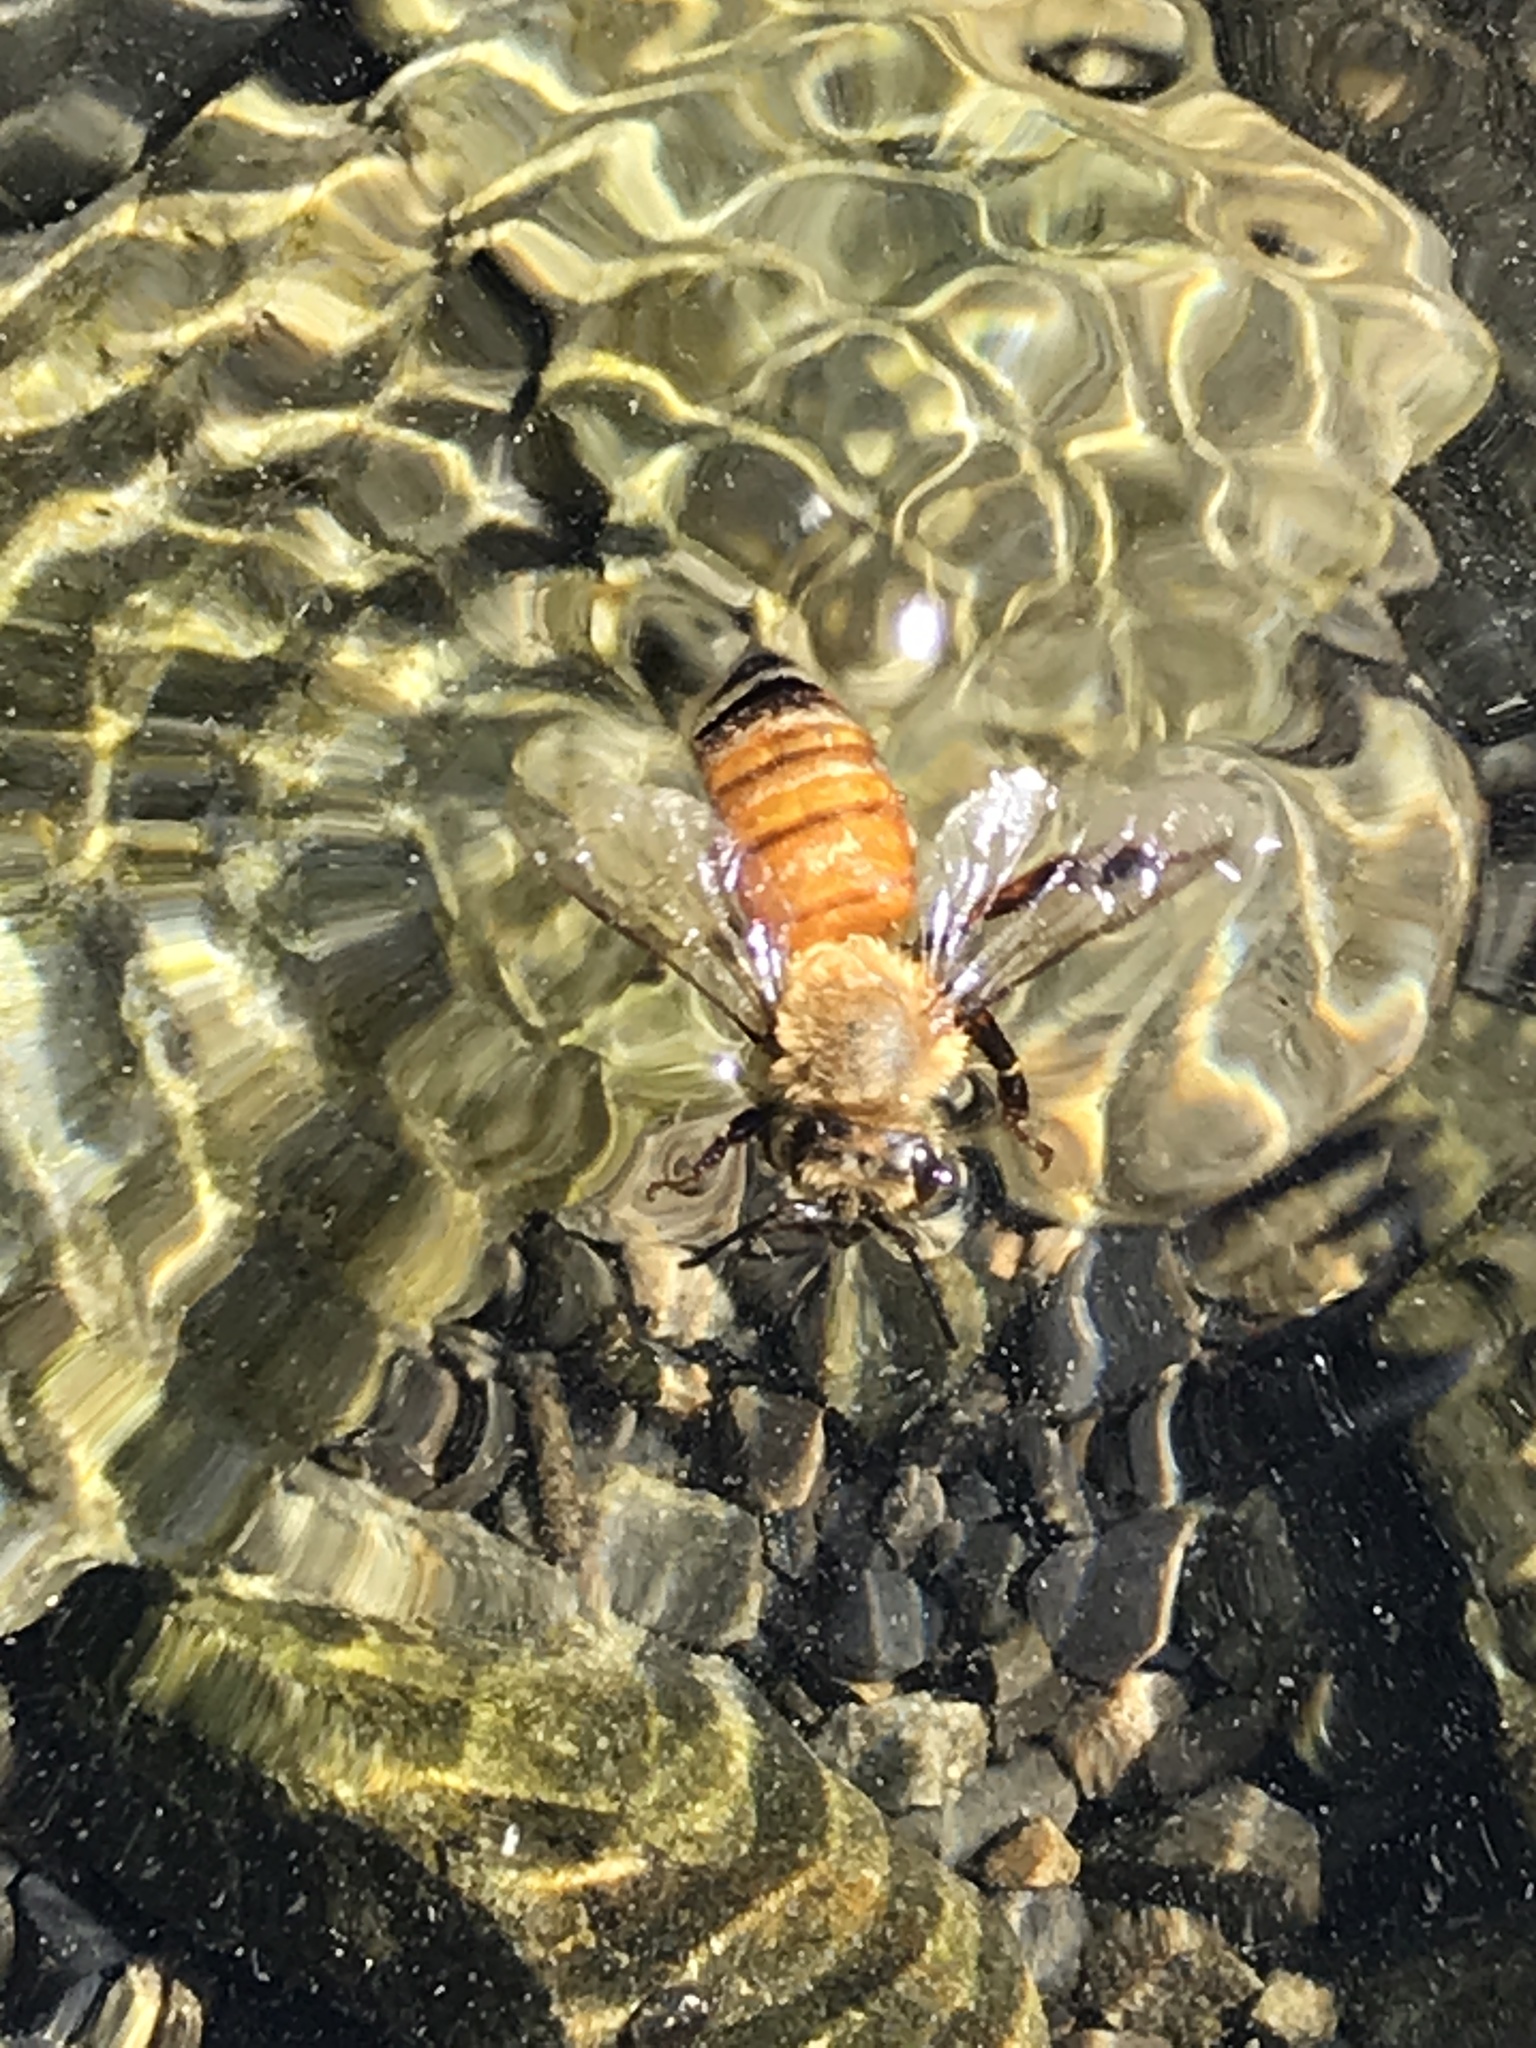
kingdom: Animalia
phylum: Arthropoda
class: Insecta
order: Hymenoptera
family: Apidae
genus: Apis
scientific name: Apis mellifera
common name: Honey bee
